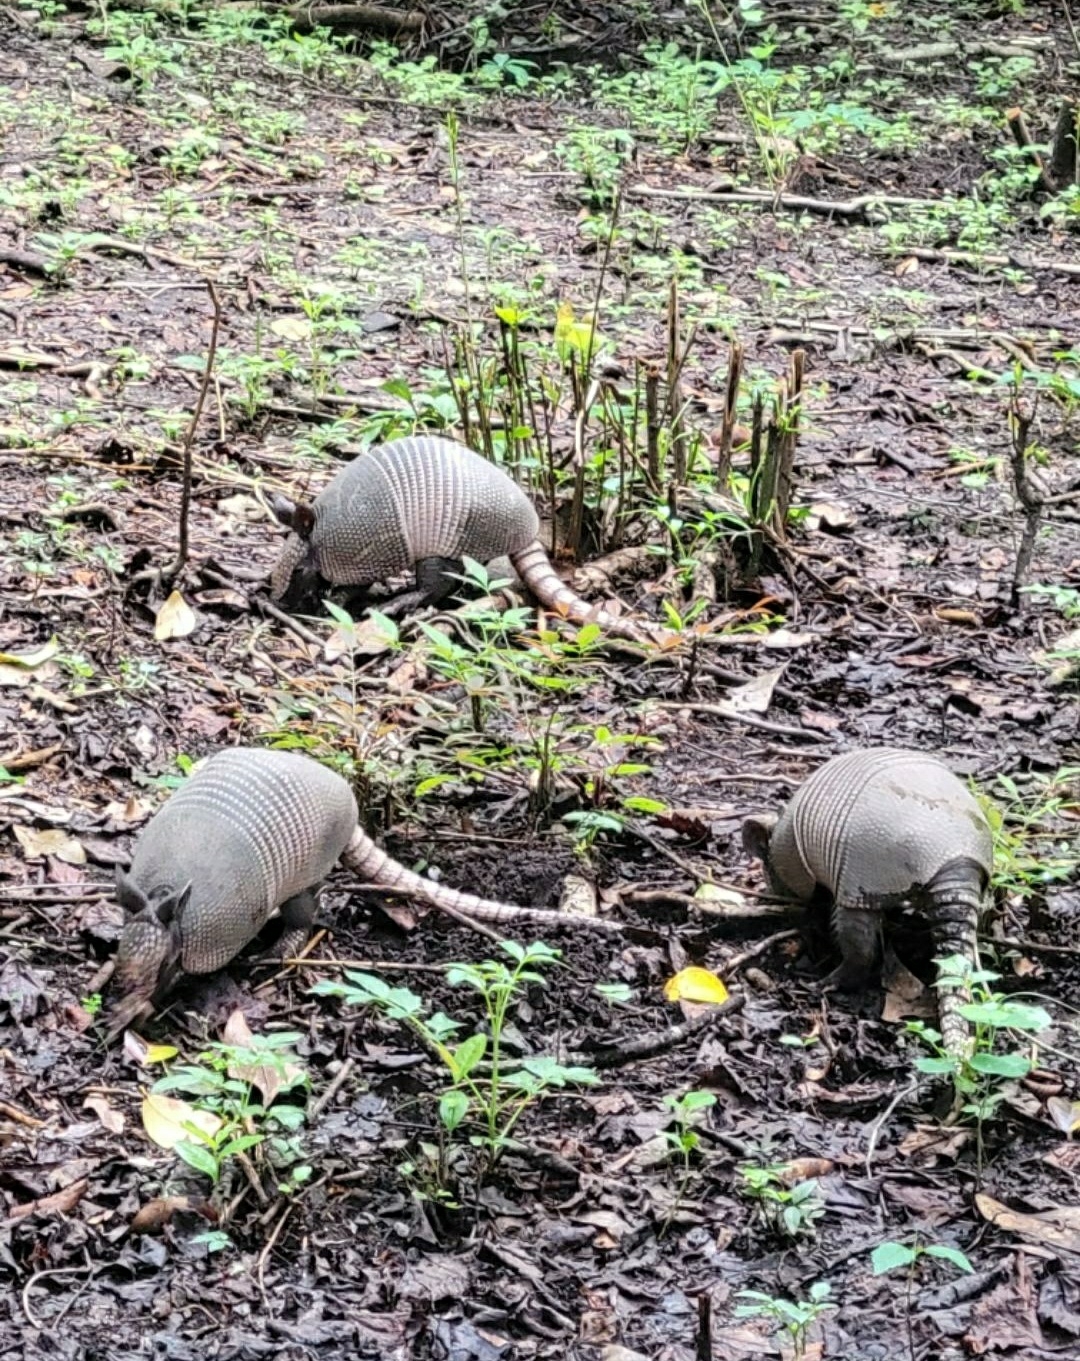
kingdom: Animalia
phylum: Chordata
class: Mammalia
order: Cingulata
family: Dasypodidae
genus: Dasypus
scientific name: Dasypus novemcinctus
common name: Nine-banded armadillo
